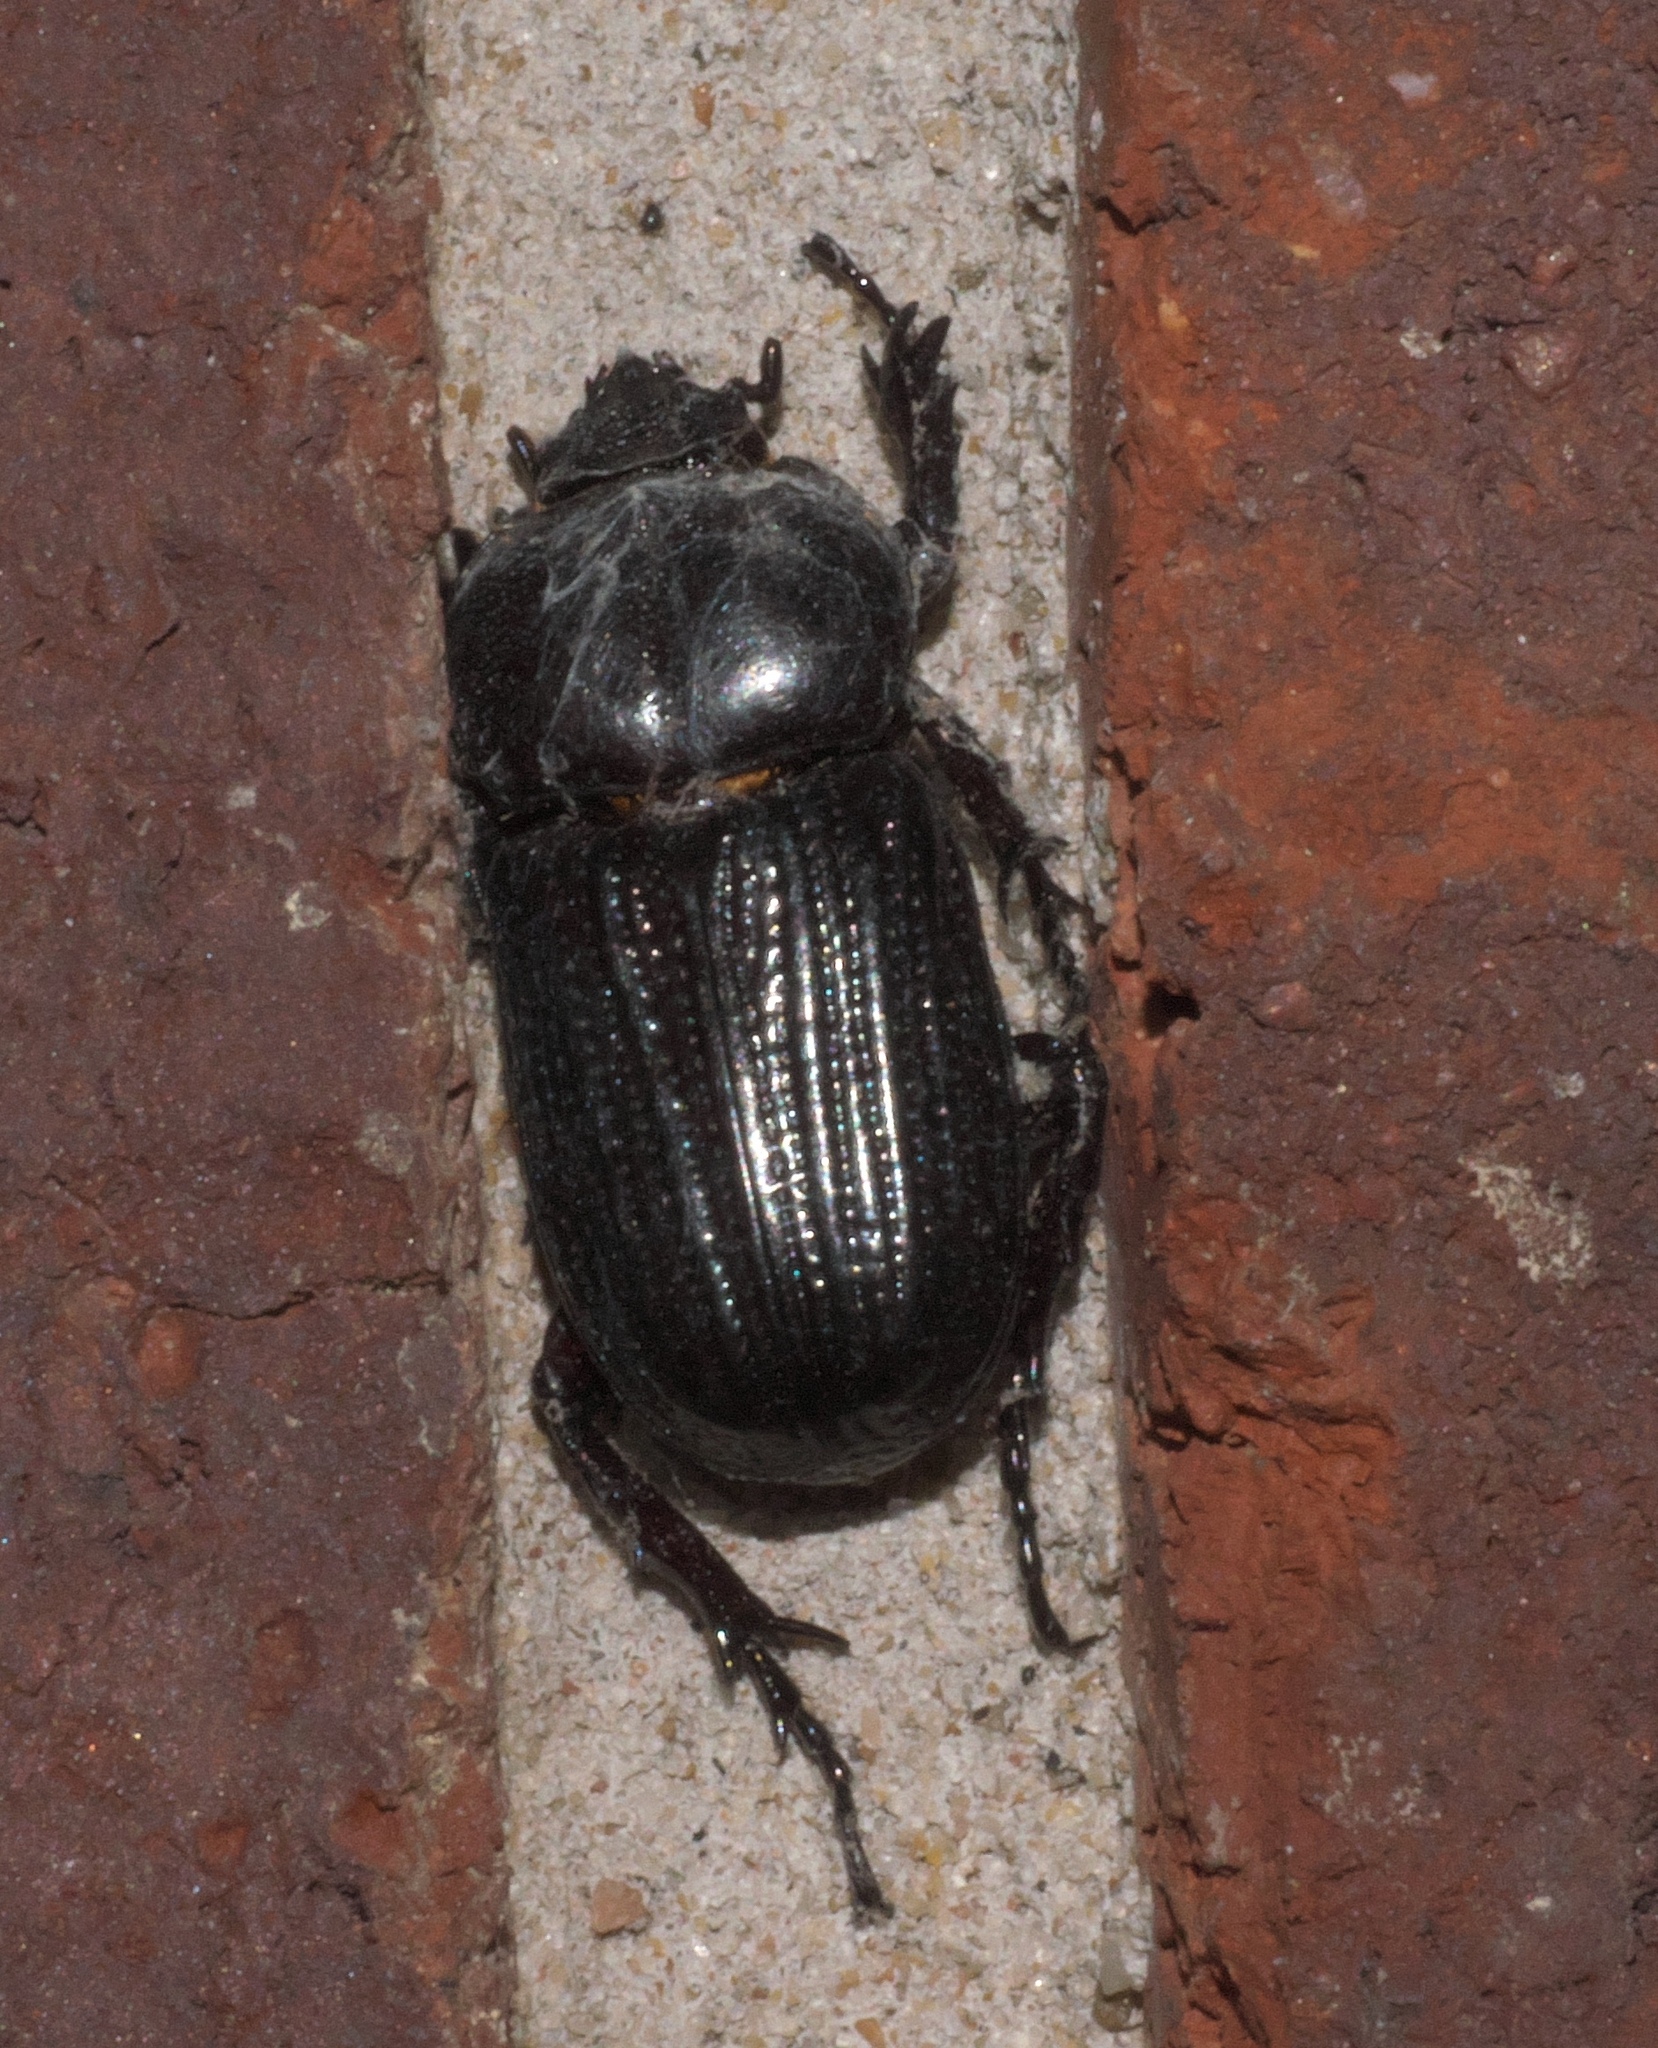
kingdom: Animalia
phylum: Arthropoda
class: Insecta
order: Coleoptera
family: Scarabaeidae
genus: Phileurus
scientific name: Phileurus valgus
